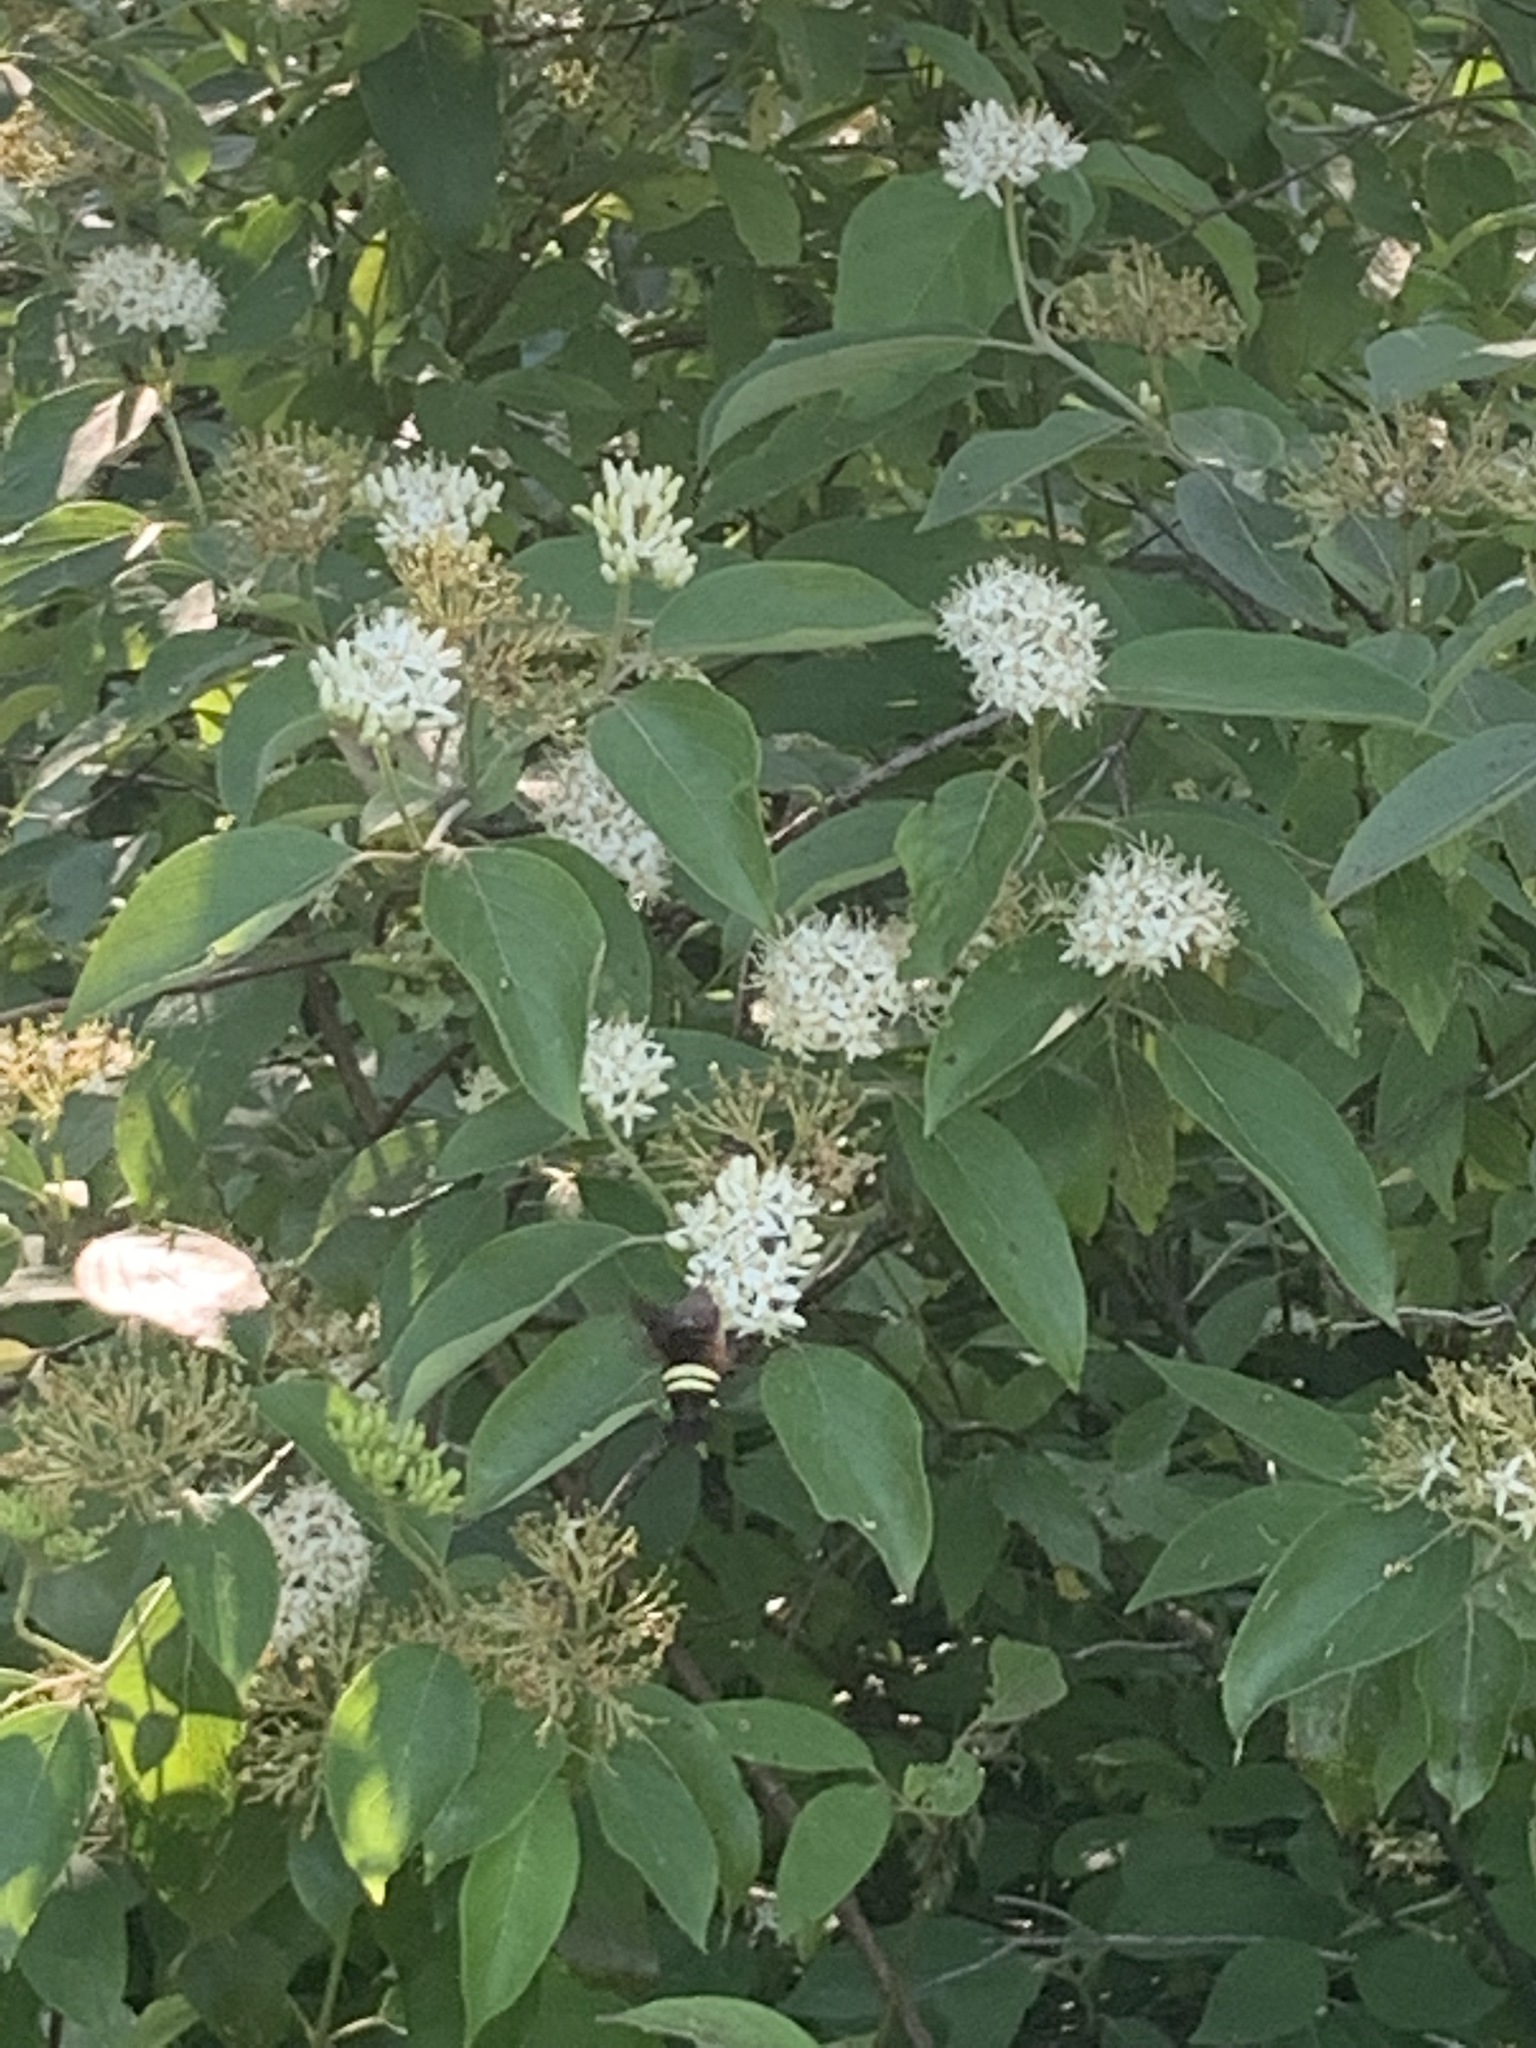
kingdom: Animalia
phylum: Arthropoda
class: Insecta
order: Lepidoptera
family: Sphingidae
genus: Amphion
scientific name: Amphion floridensis
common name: Nessus sphinx
